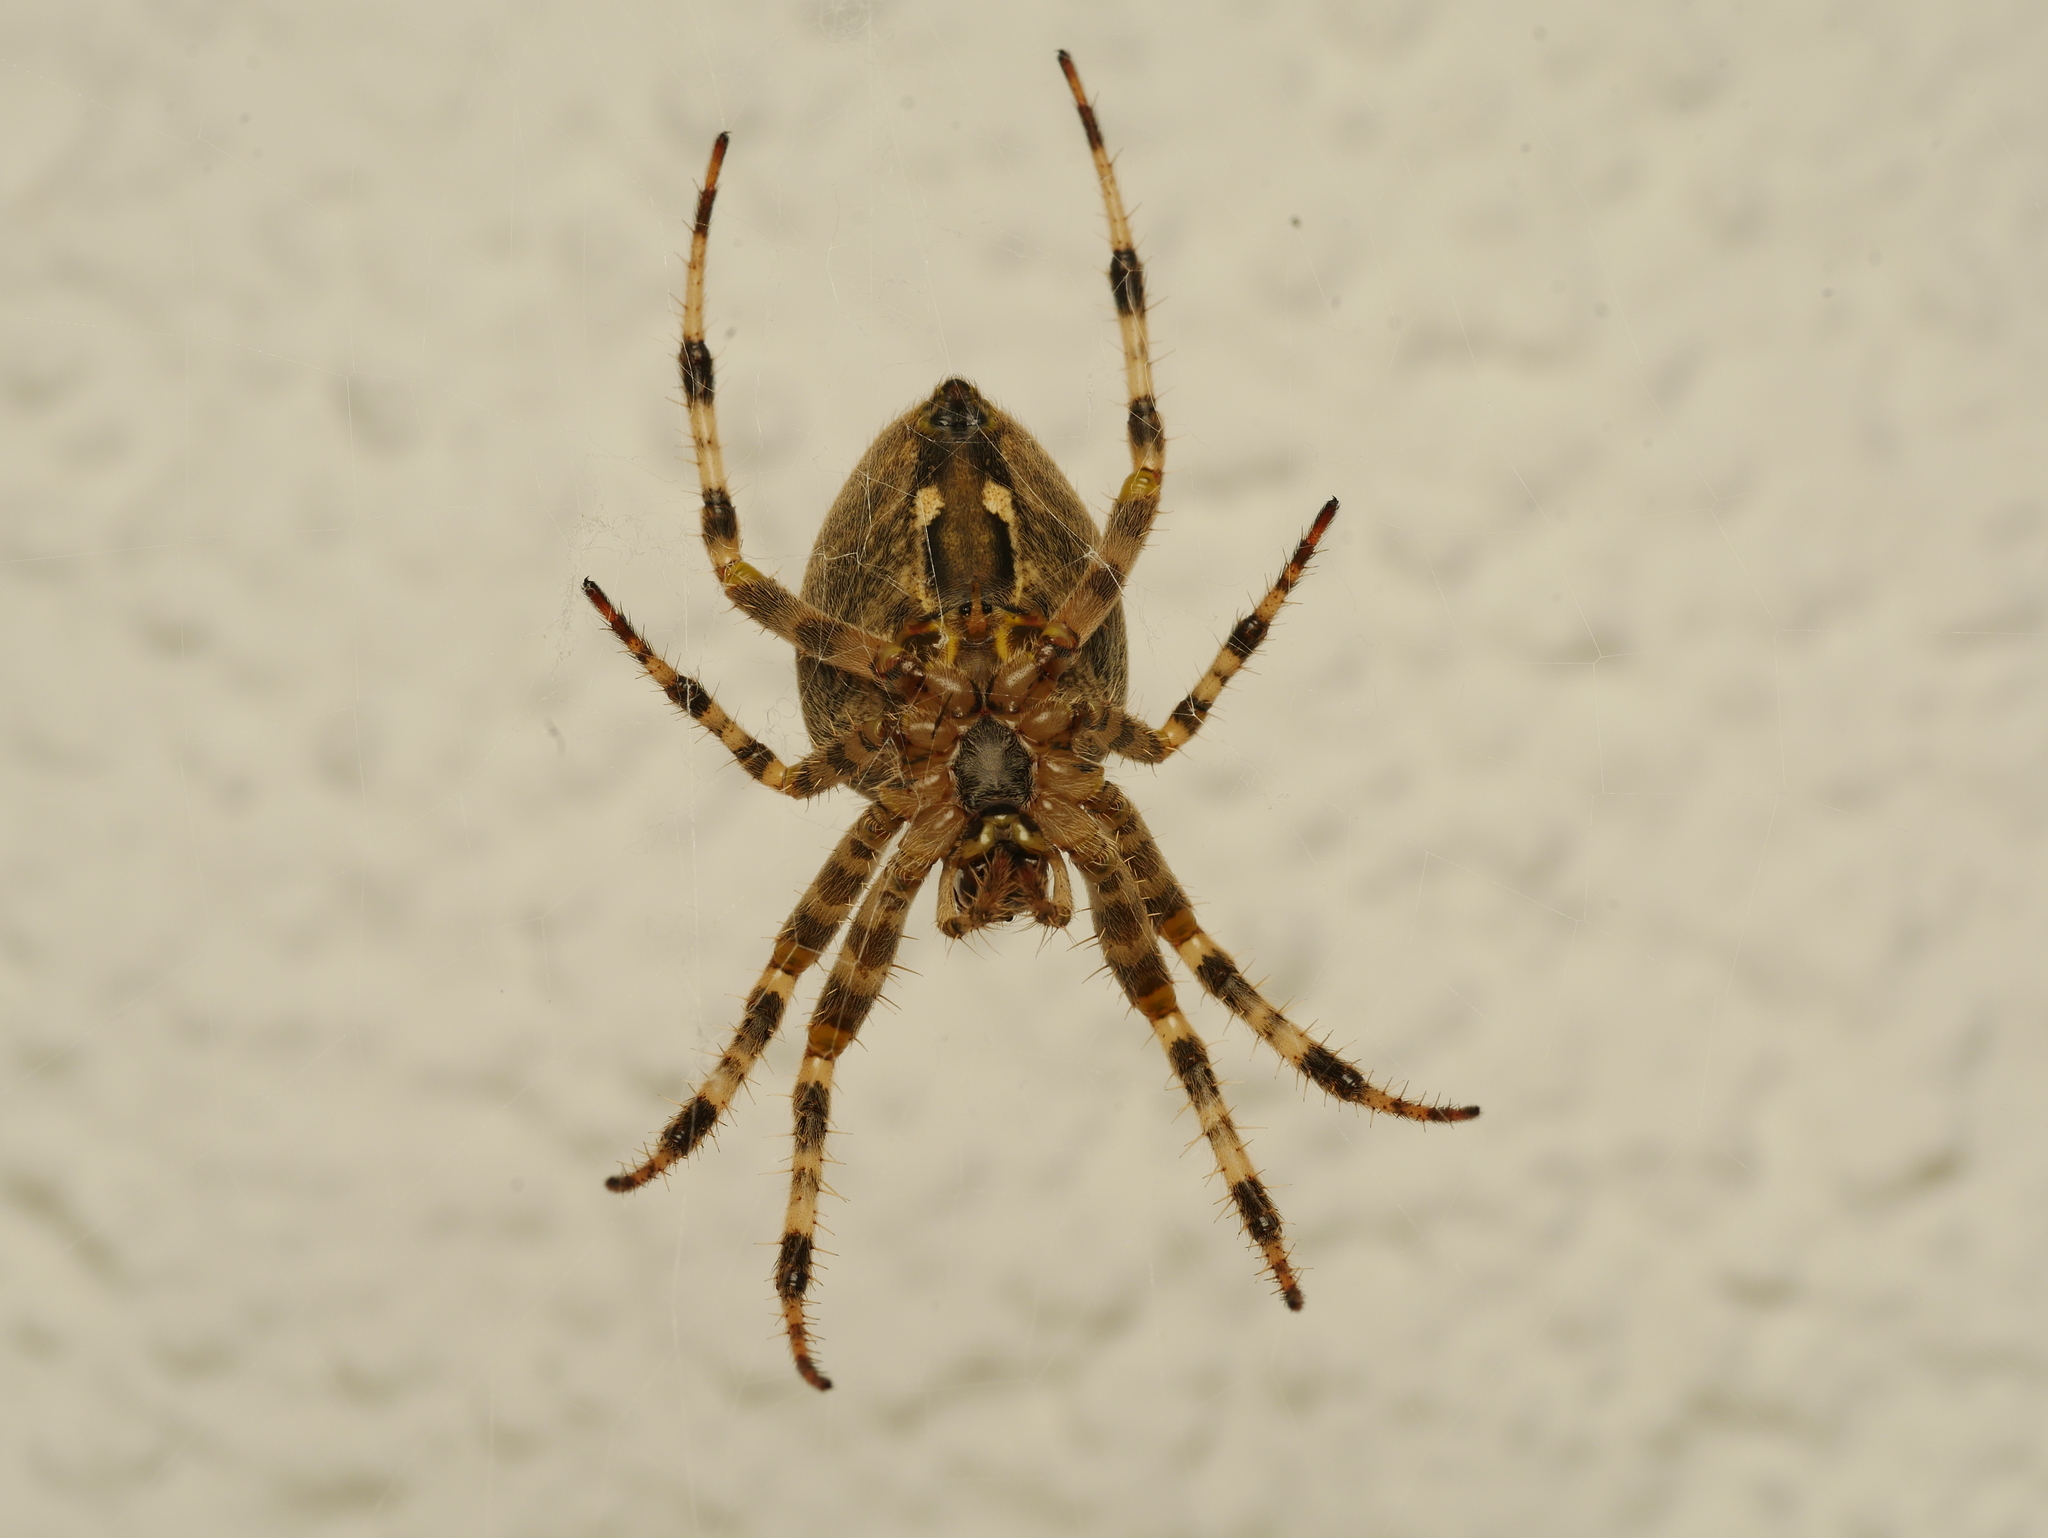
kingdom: Animalia
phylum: Arthropoda
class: Arachnida
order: Araneae
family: Araneidae
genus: Araneus
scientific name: Araneus diadematus
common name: Cross orbweaver
